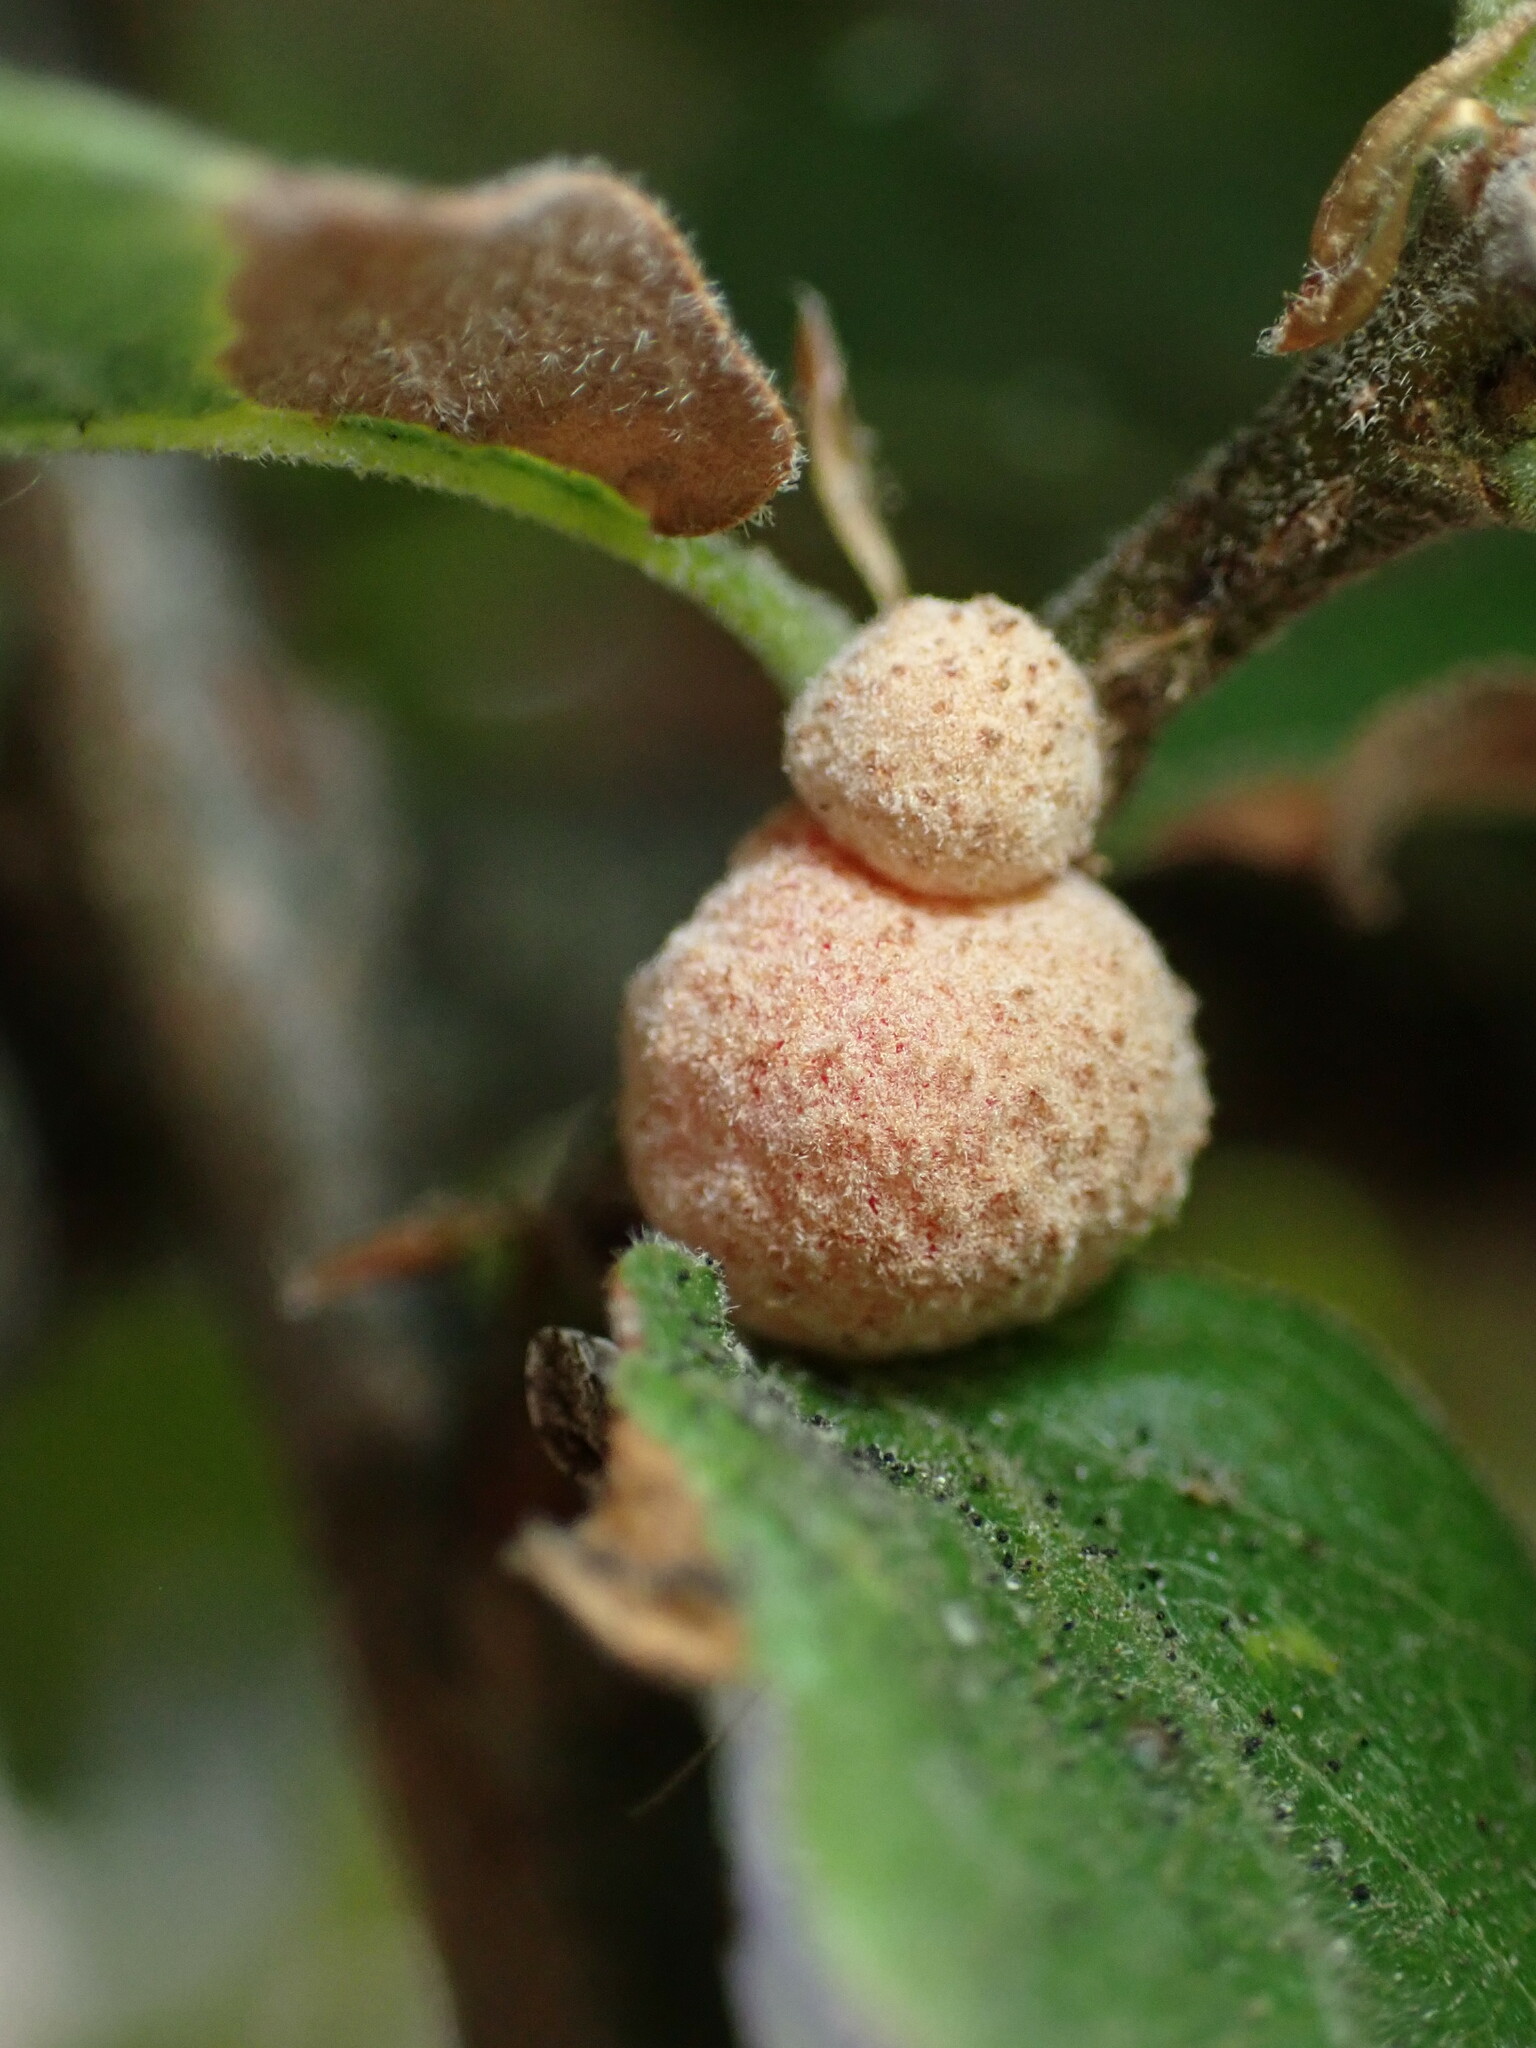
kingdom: Animalia
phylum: Arthropoda
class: Insecta
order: Hymenoptera
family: Cynipidae
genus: Cynips
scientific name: Cynips conspicua
